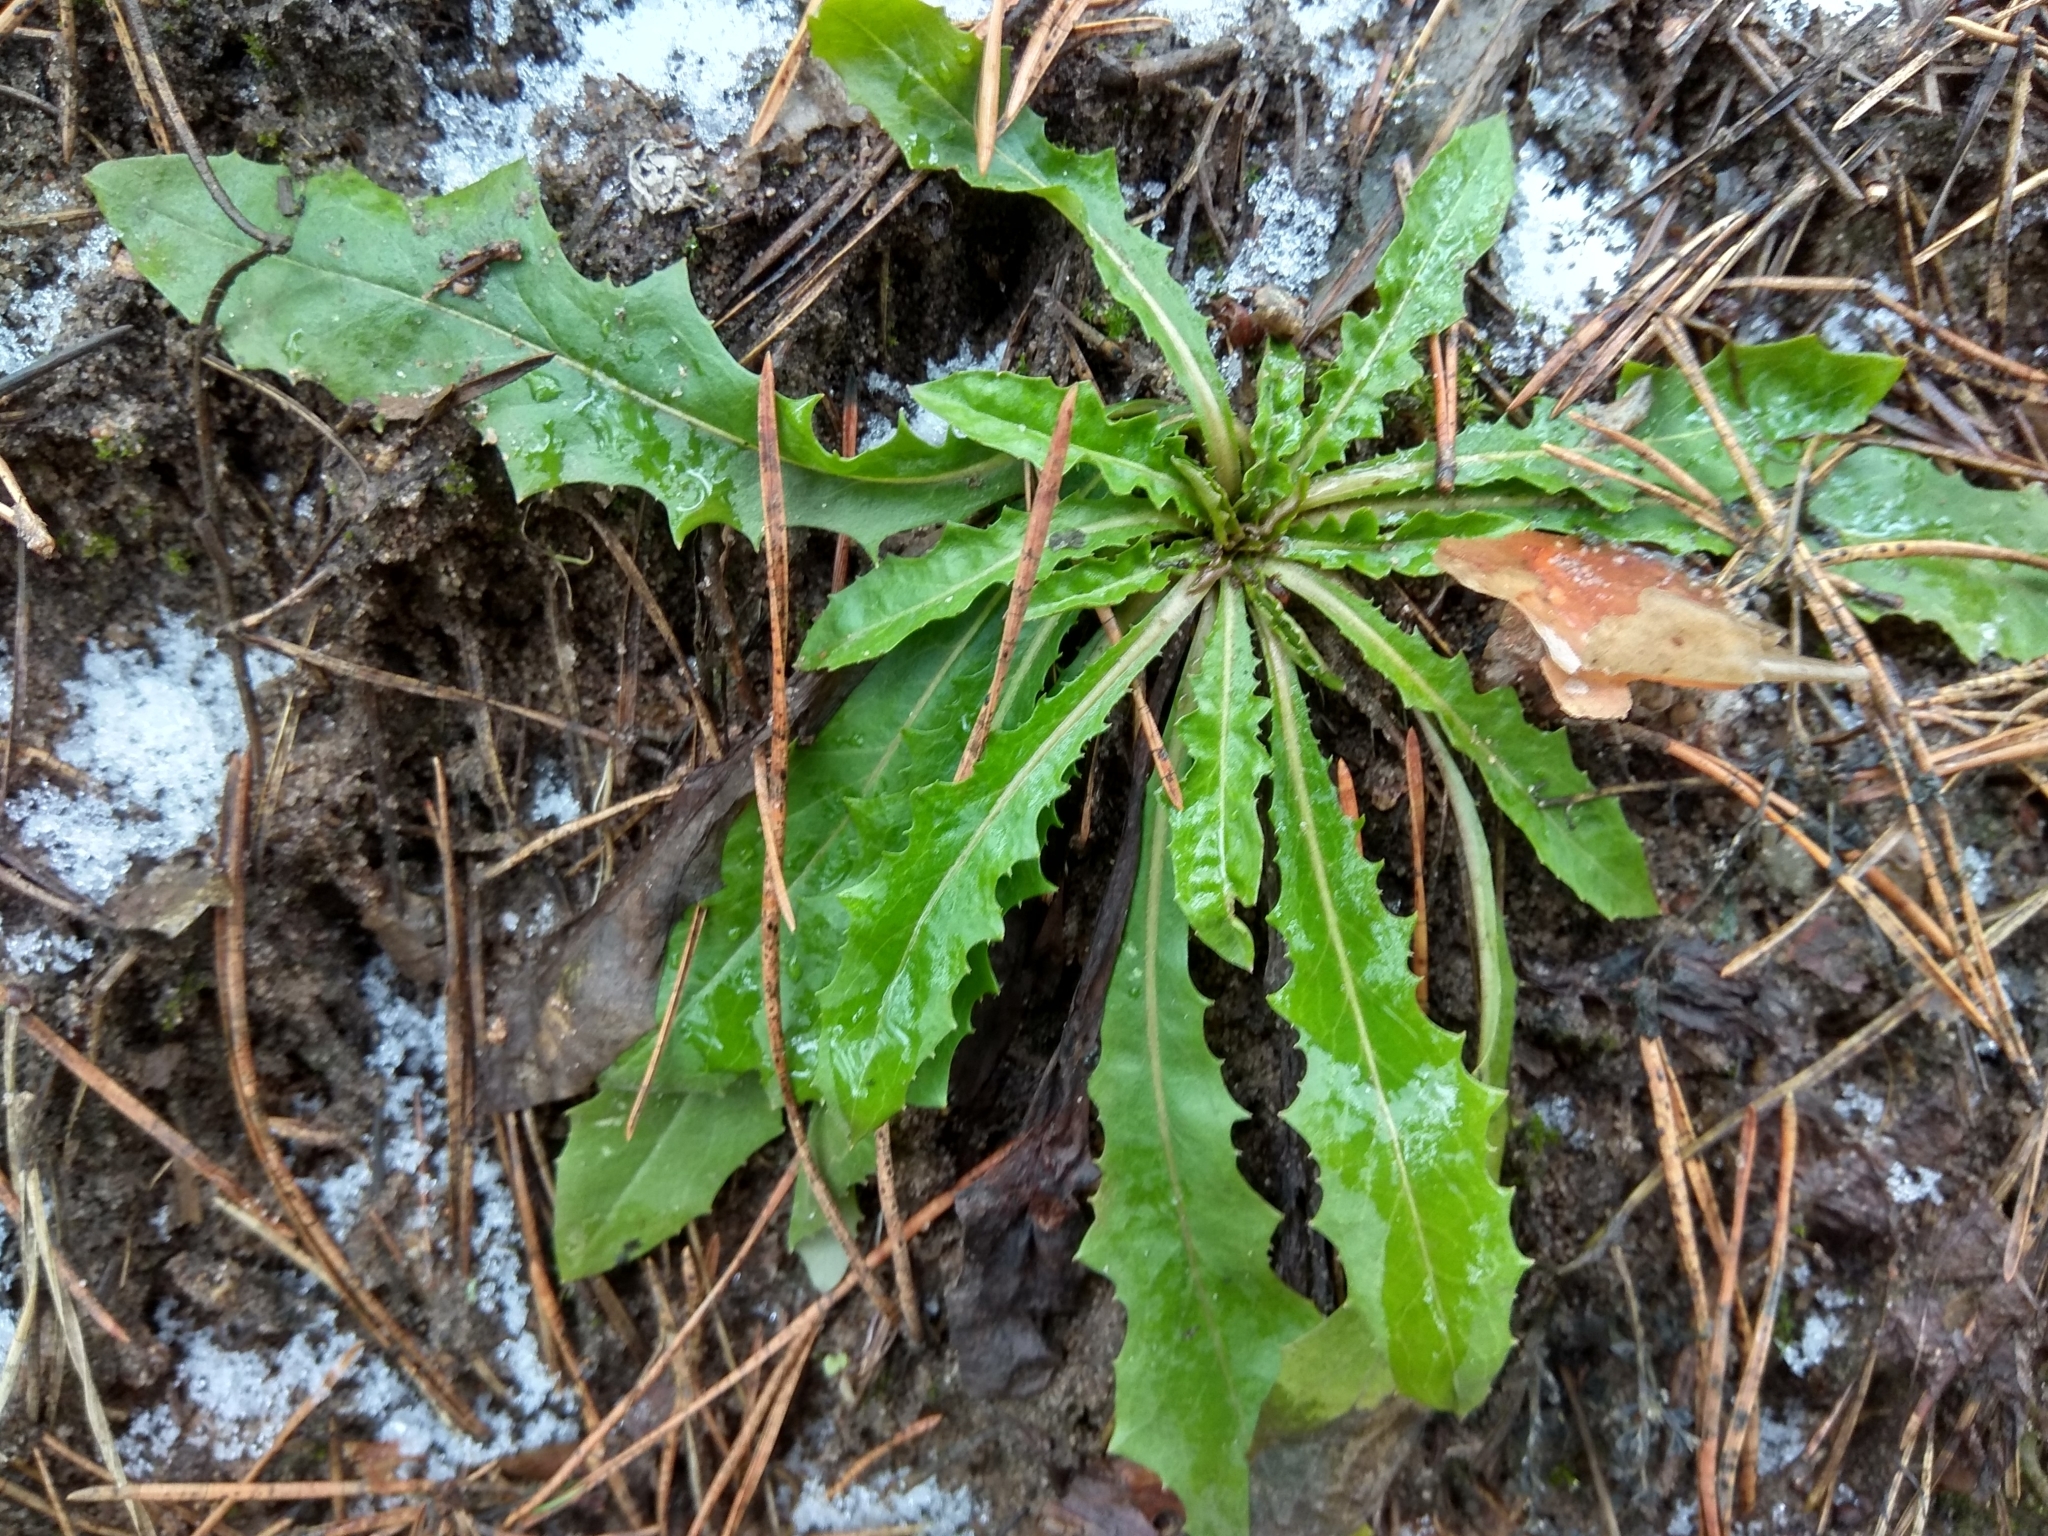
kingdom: Plantae
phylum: Tracheophyta
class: Magnoliopsida
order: Asterales
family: Asteraceae
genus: Taraxacum
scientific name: Taraxacum officinale
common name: Common dandelion
